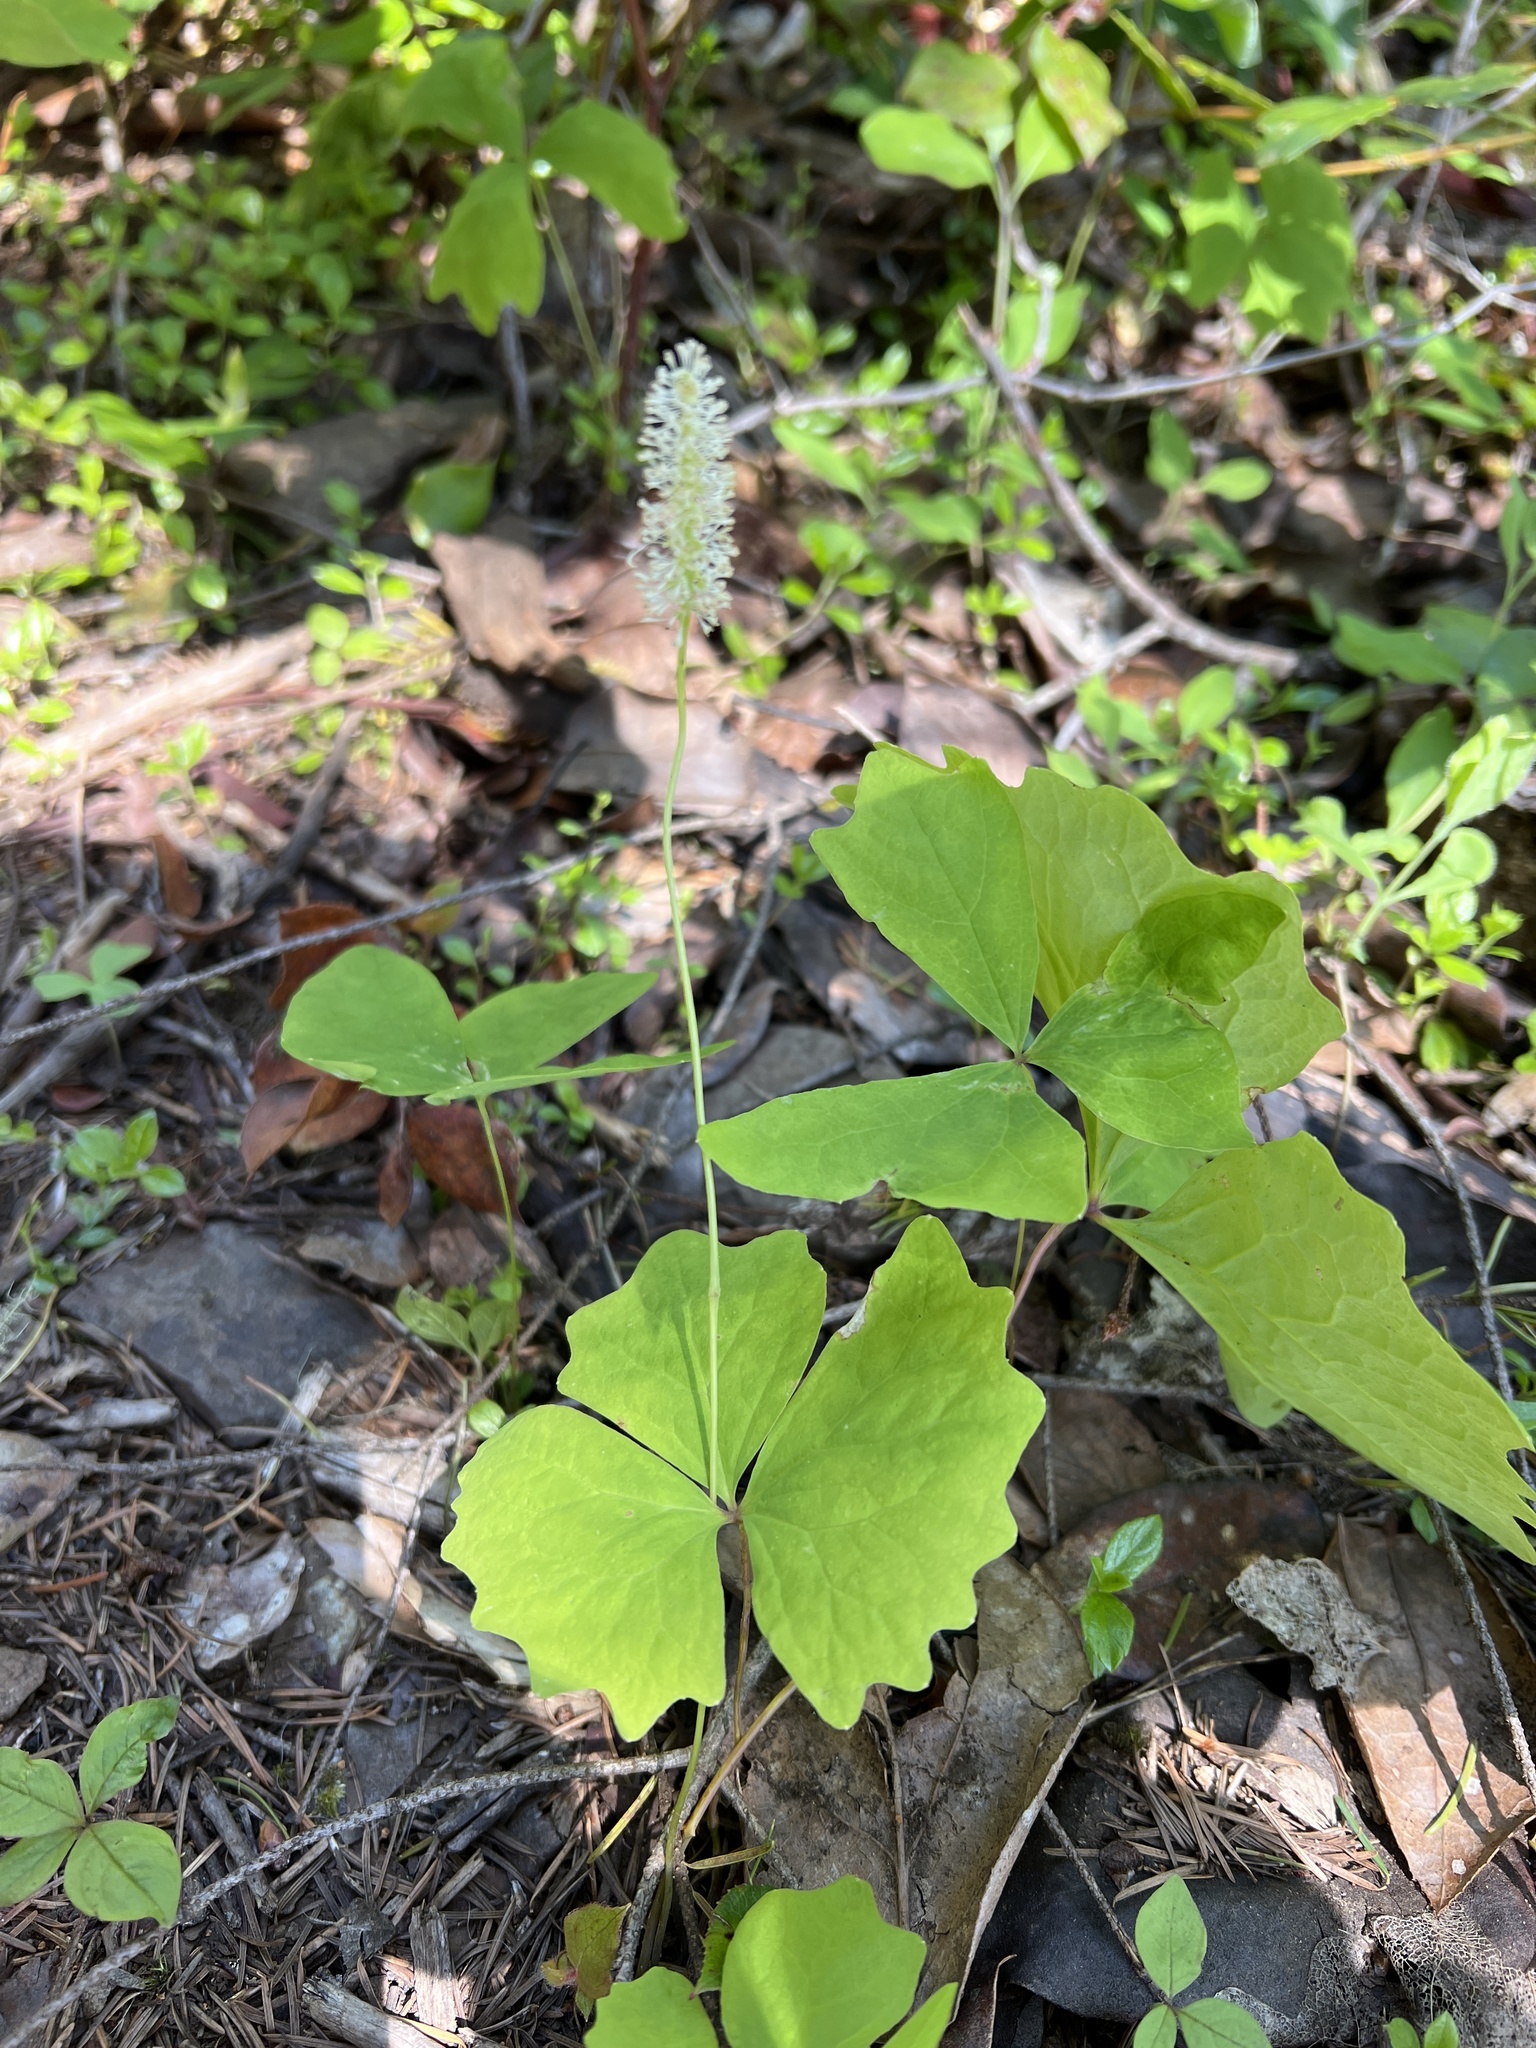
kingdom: Plantae
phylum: Tracheophyta
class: Magnoliopsida
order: Ranunculales
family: Berberidaceae
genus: Achlys
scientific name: Achlys triphylla
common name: Vanilla-leaf
